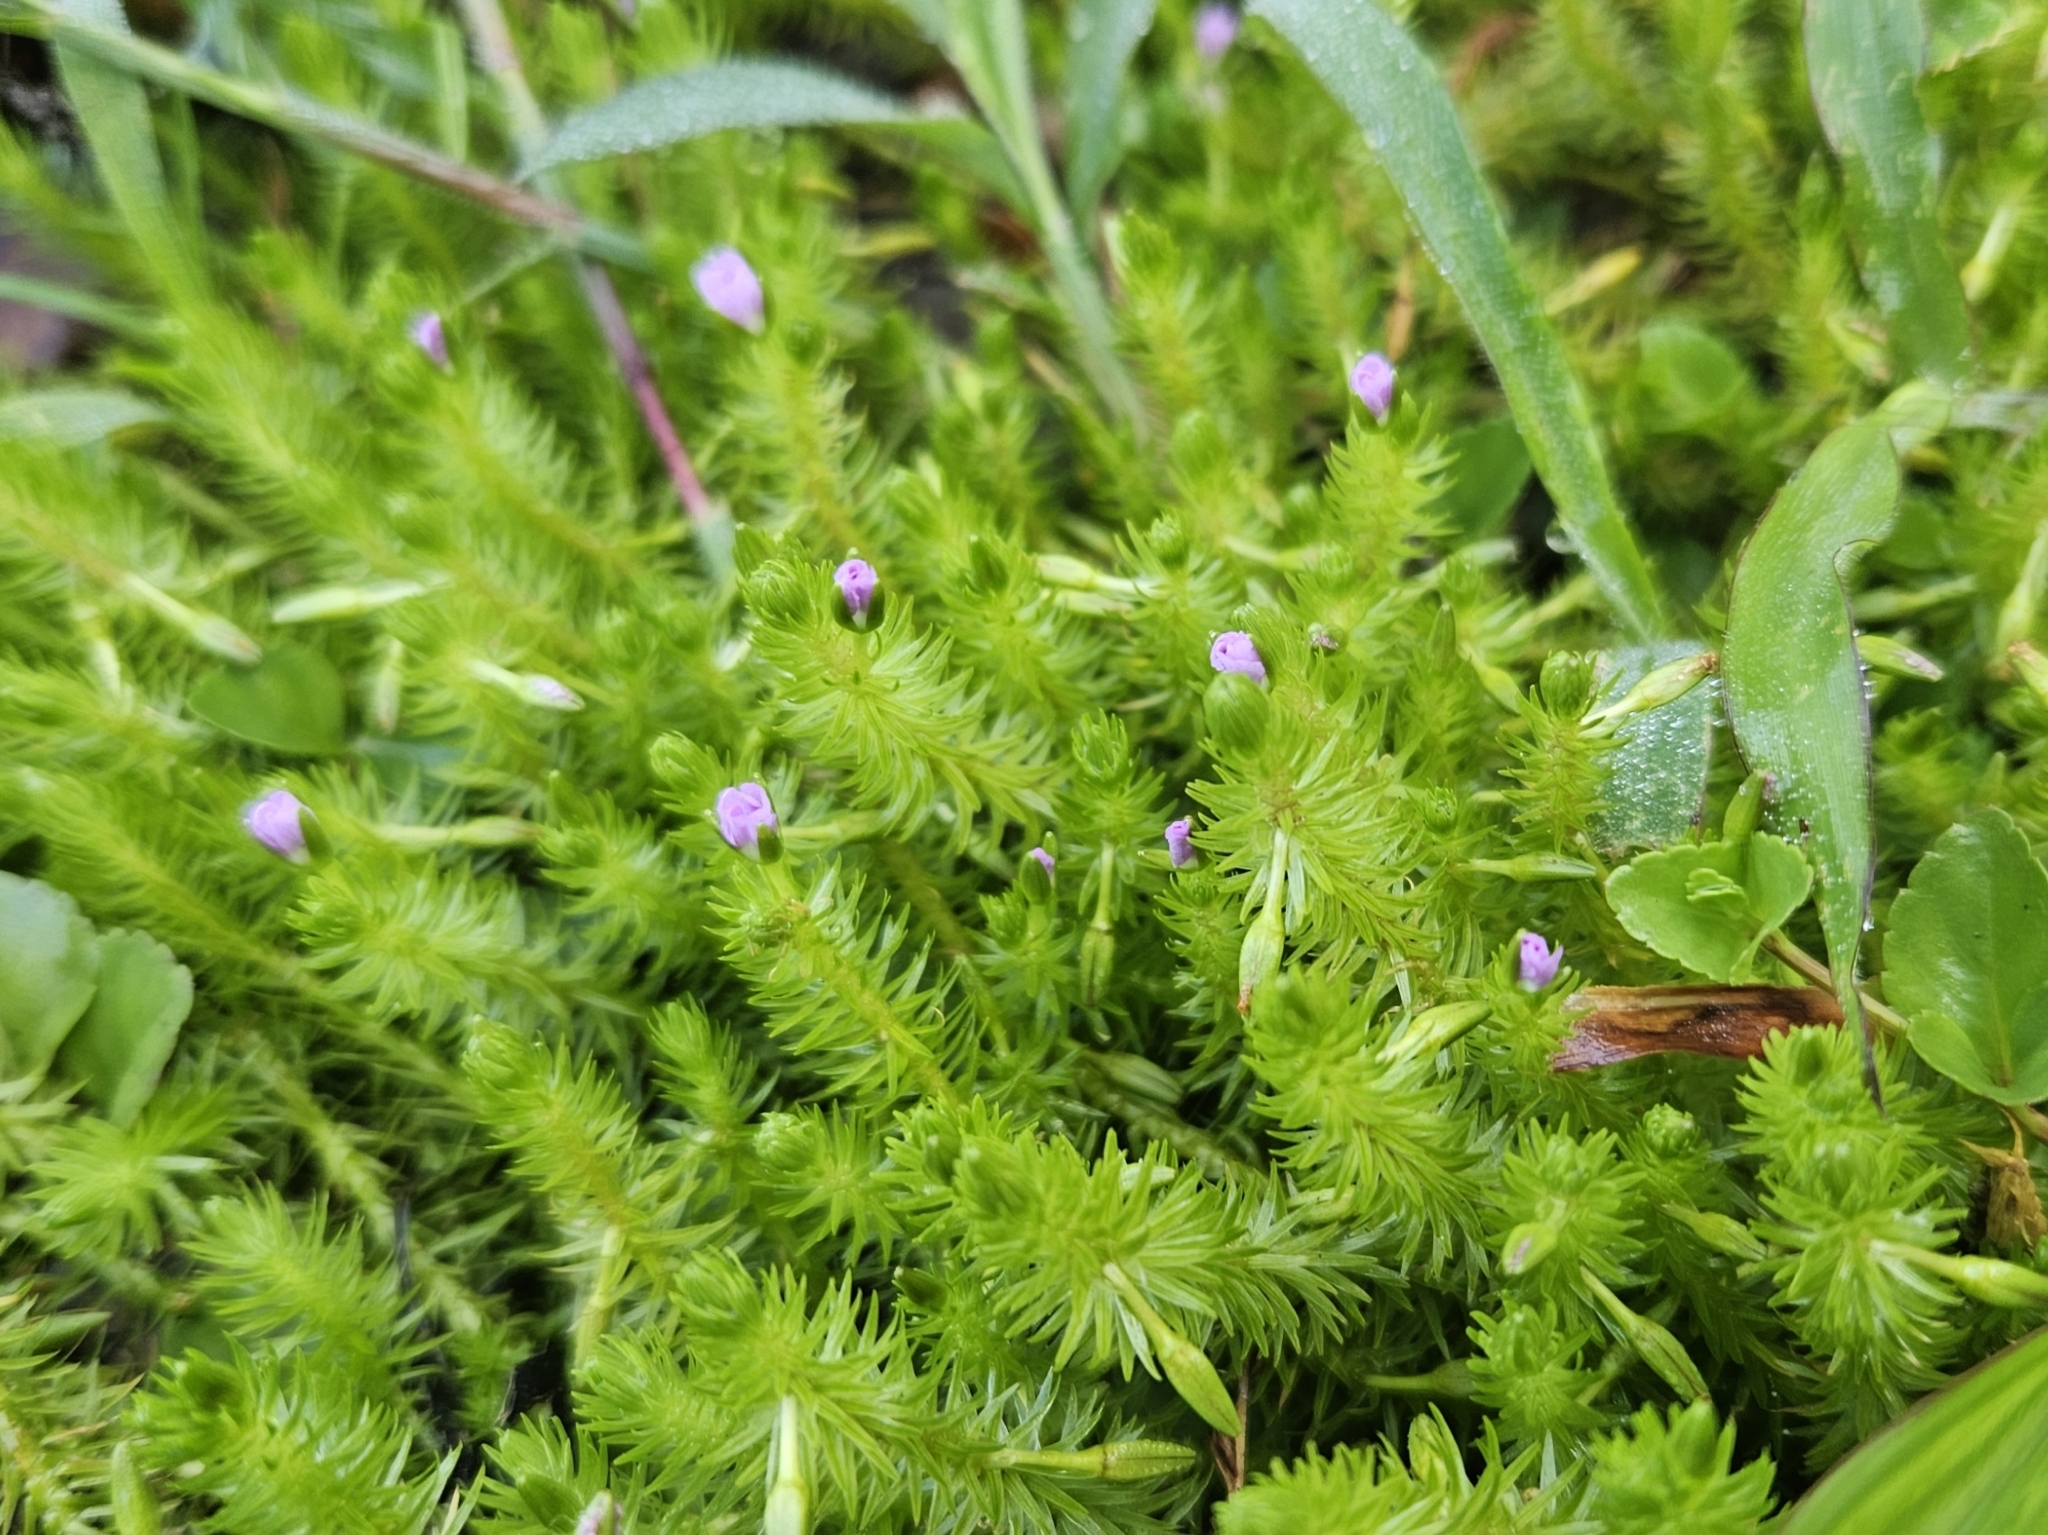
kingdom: Plantae
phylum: Tracheophyta
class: Liliopsida
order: Poales
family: Mayacaceae
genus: Mayaca
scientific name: Mayaca fluviatilis
